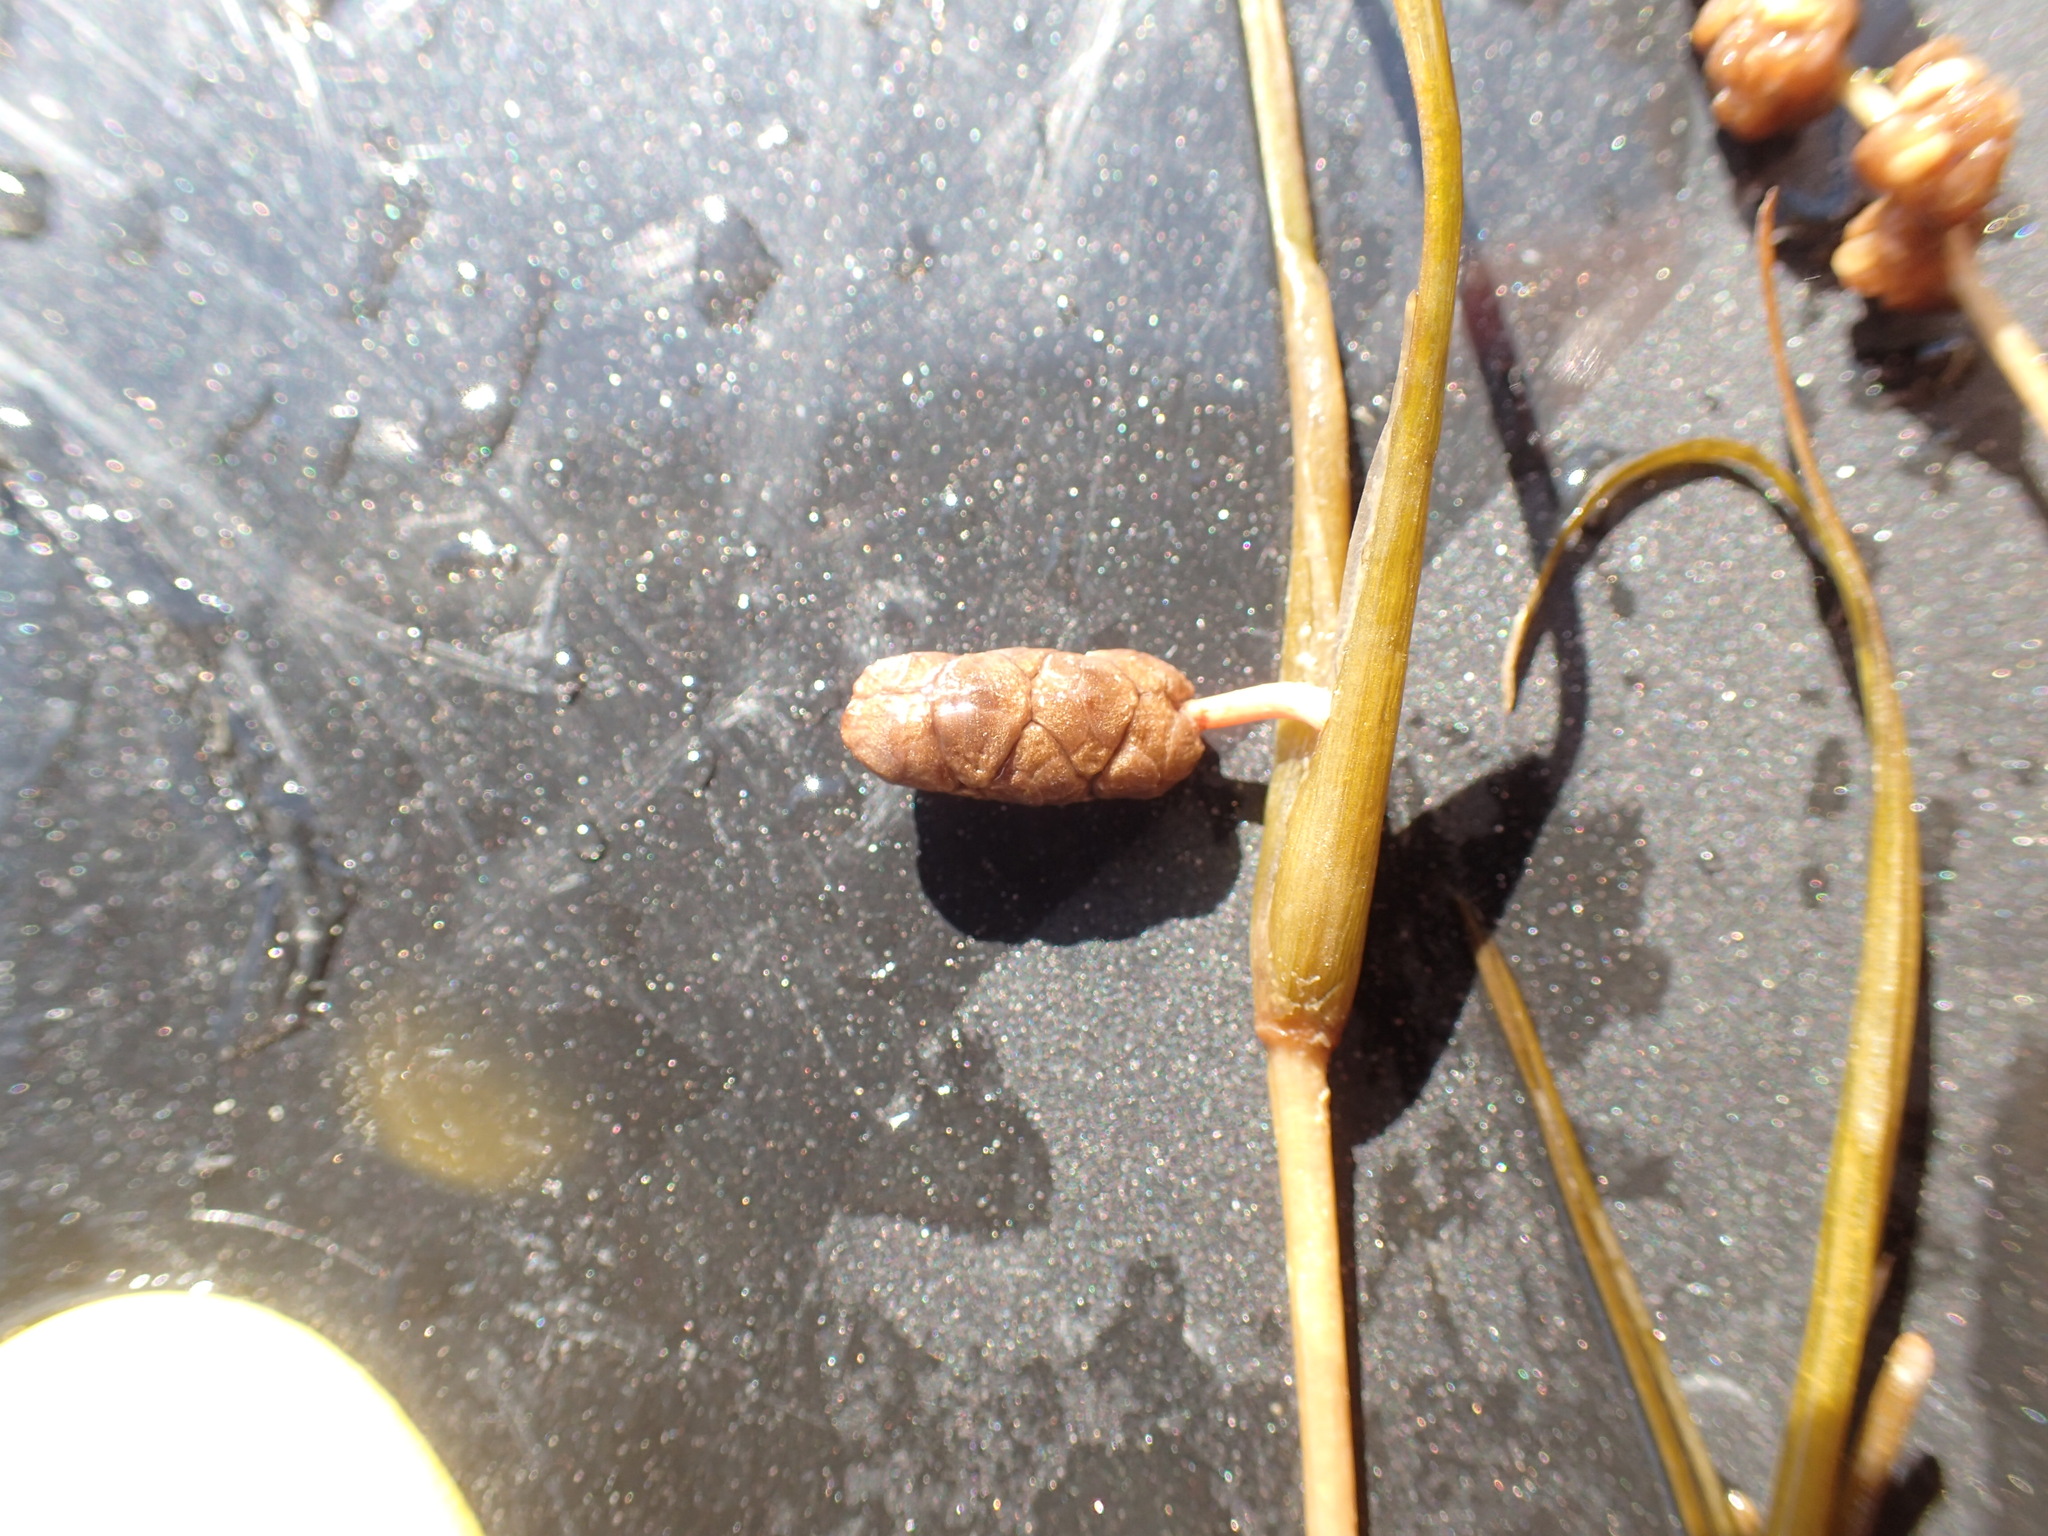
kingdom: Plantae
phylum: Tracheophyta
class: Liliopsida
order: Alismatales
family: Potamogetonaceae
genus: Stuckenia
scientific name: Stuckenia pectinata
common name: Sago pondweed
